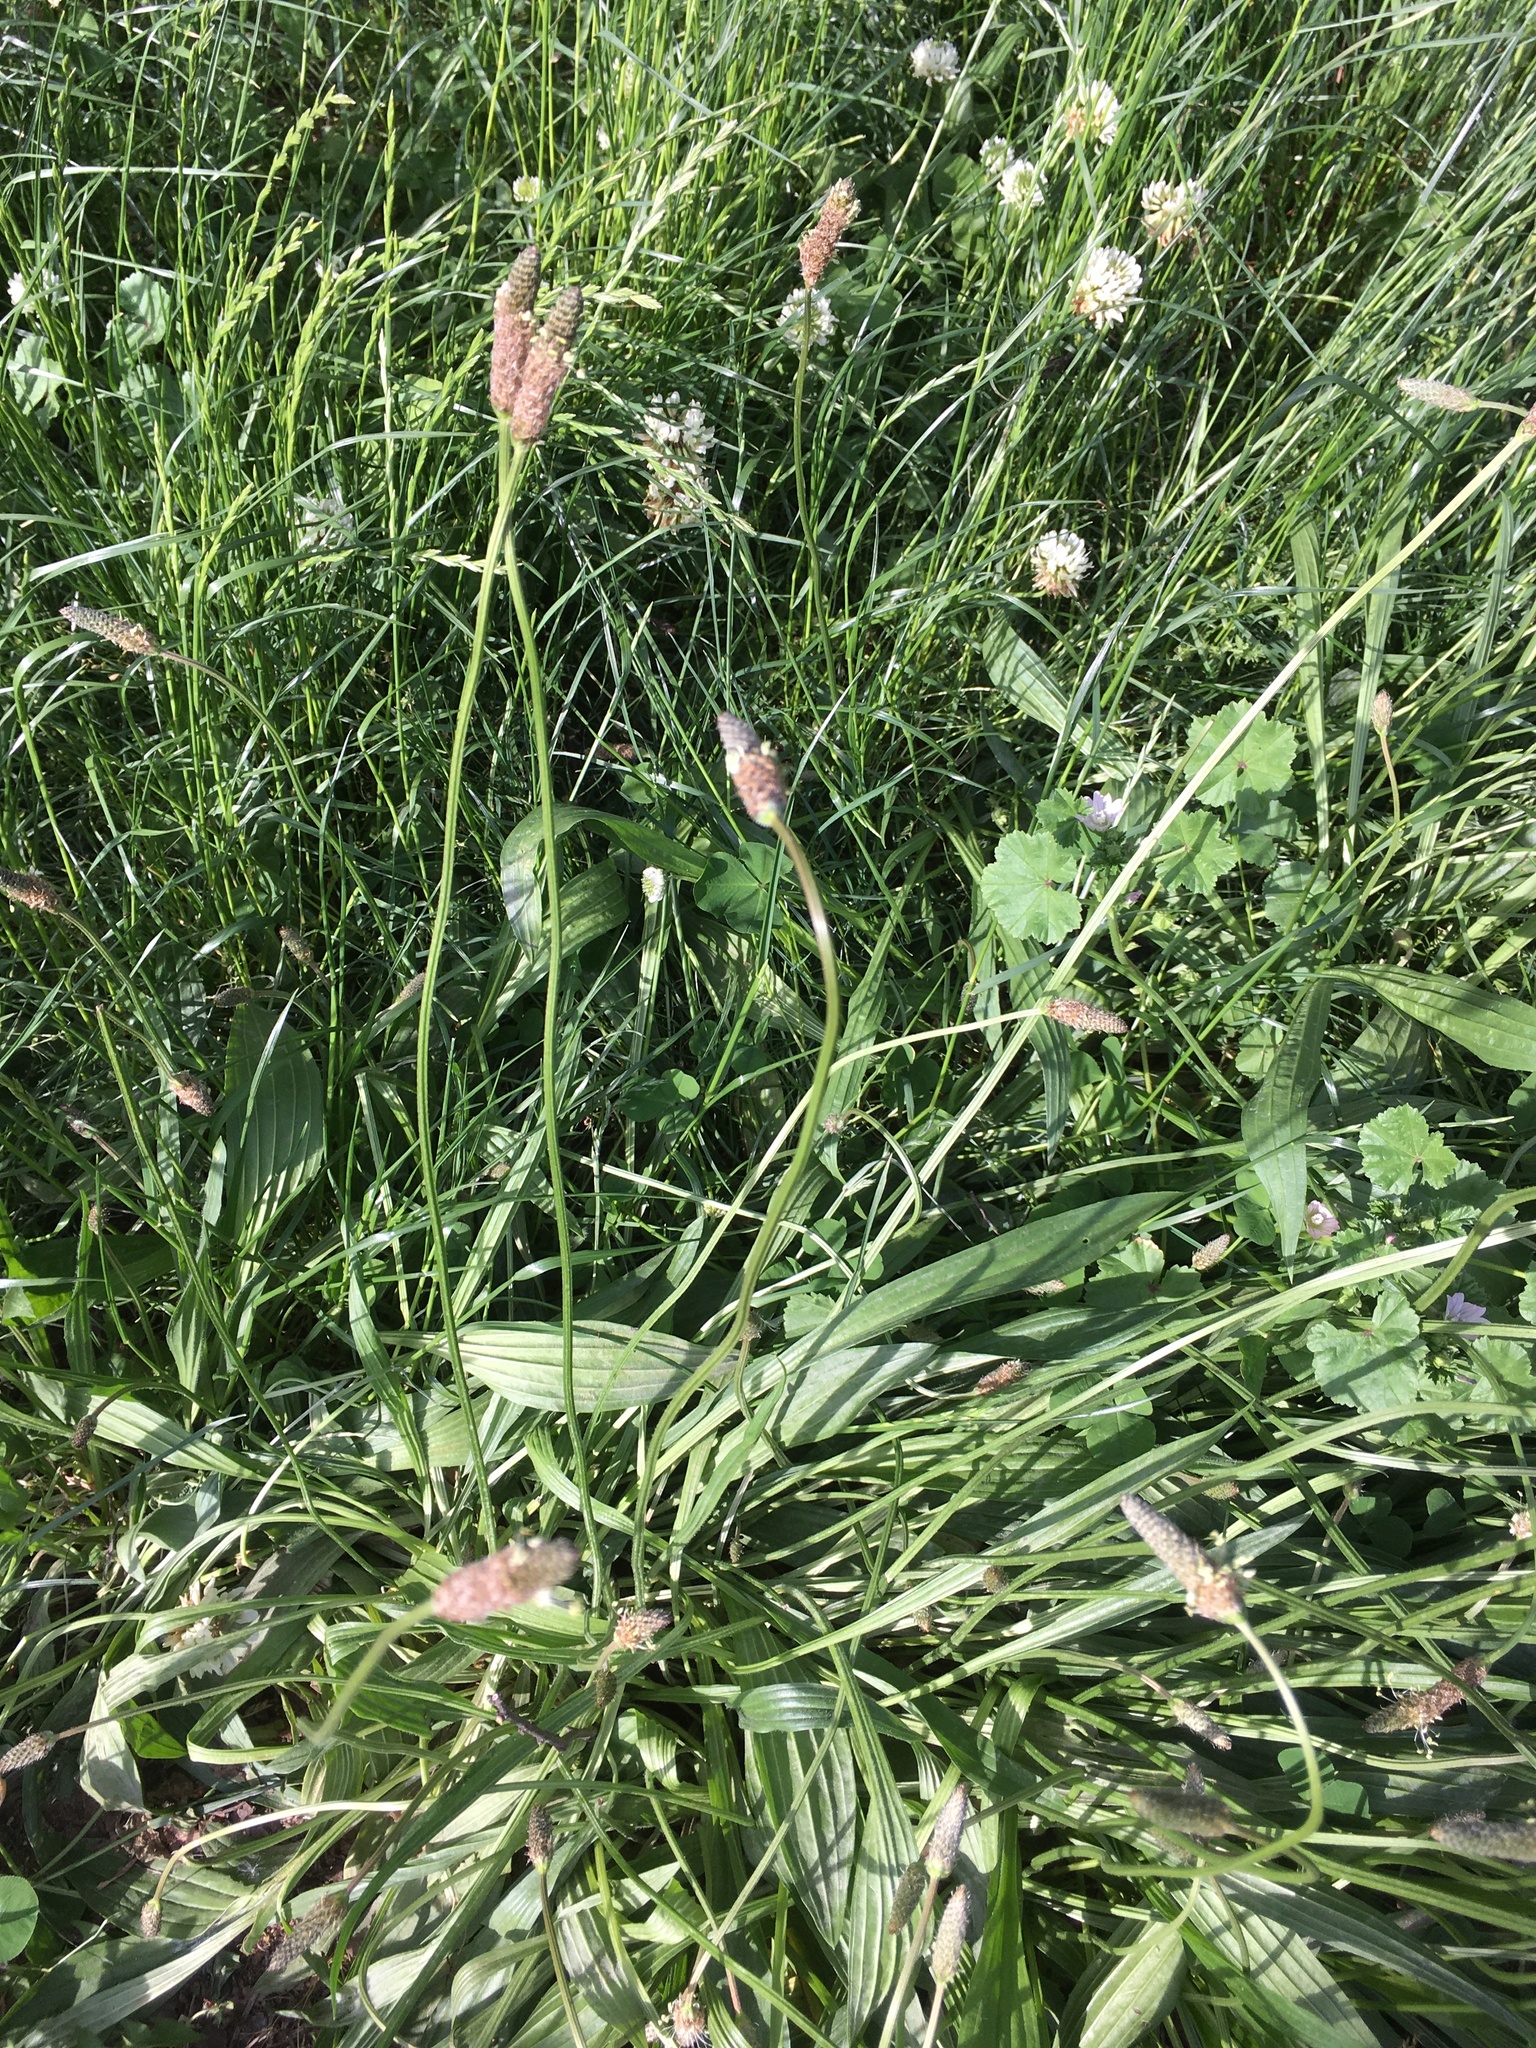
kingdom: Plantae
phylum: Tracheophyta
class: Magnoliopsida
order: Lamiales
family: Plantaginaceae
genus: Plantago
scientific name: Plantago lanceolata
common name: Ribwort plantain
